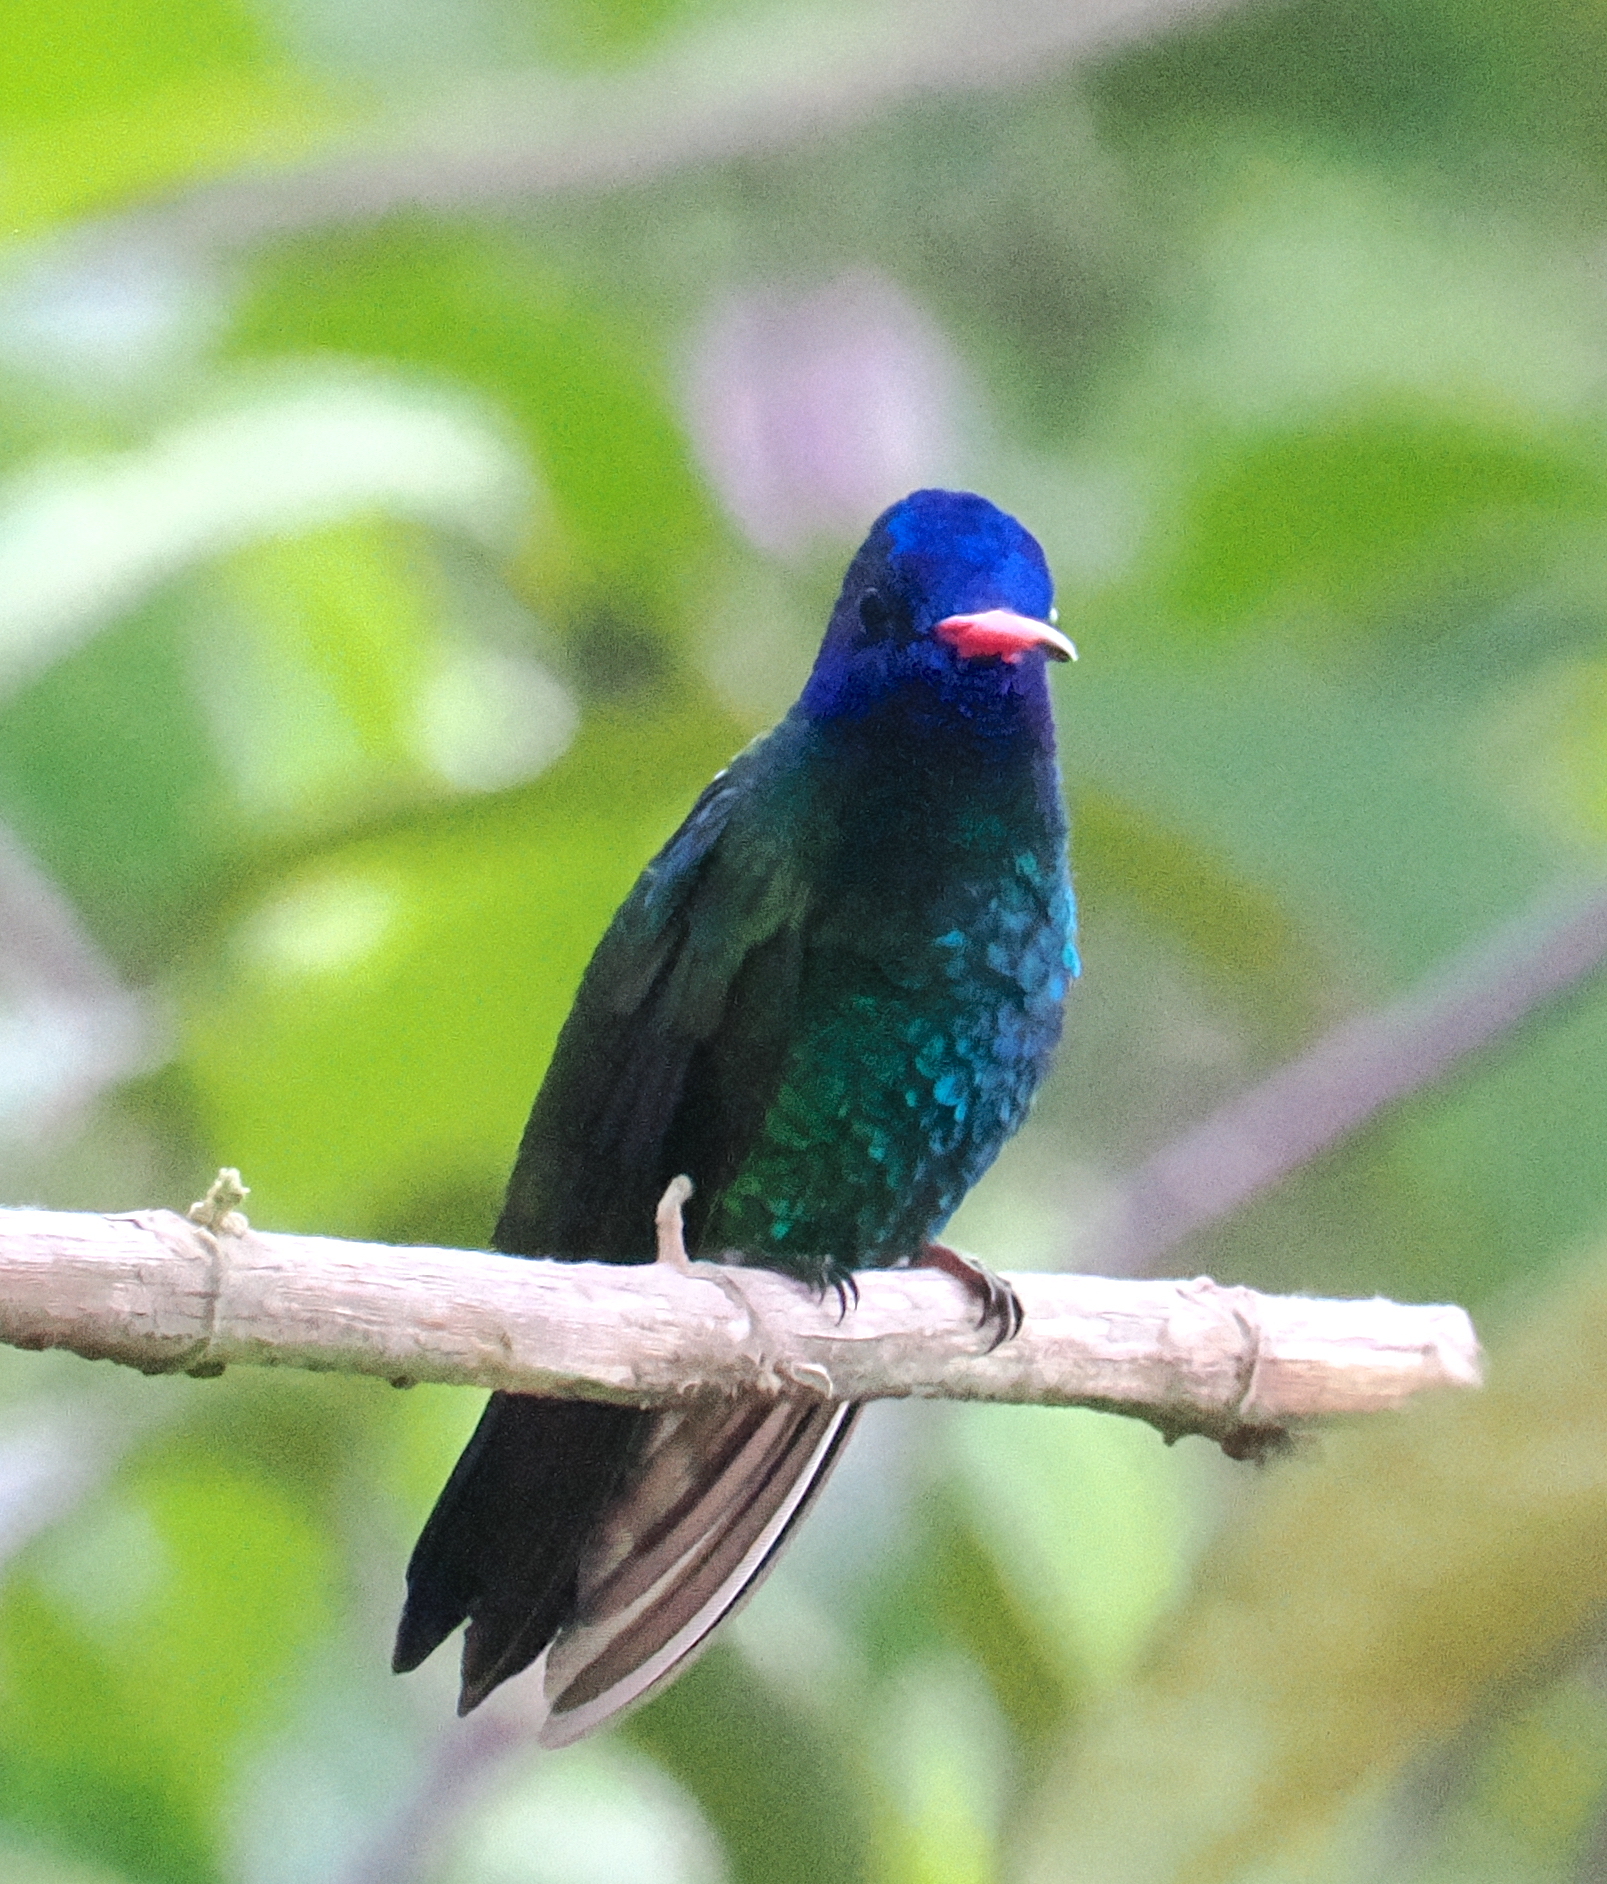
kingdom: Animalia
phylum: Chordata
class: Aves
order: Apodiformes
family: Trochilidae
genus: Chrysuronia
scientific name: Chrysuronia grayi
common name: Blue-headed sapphire
